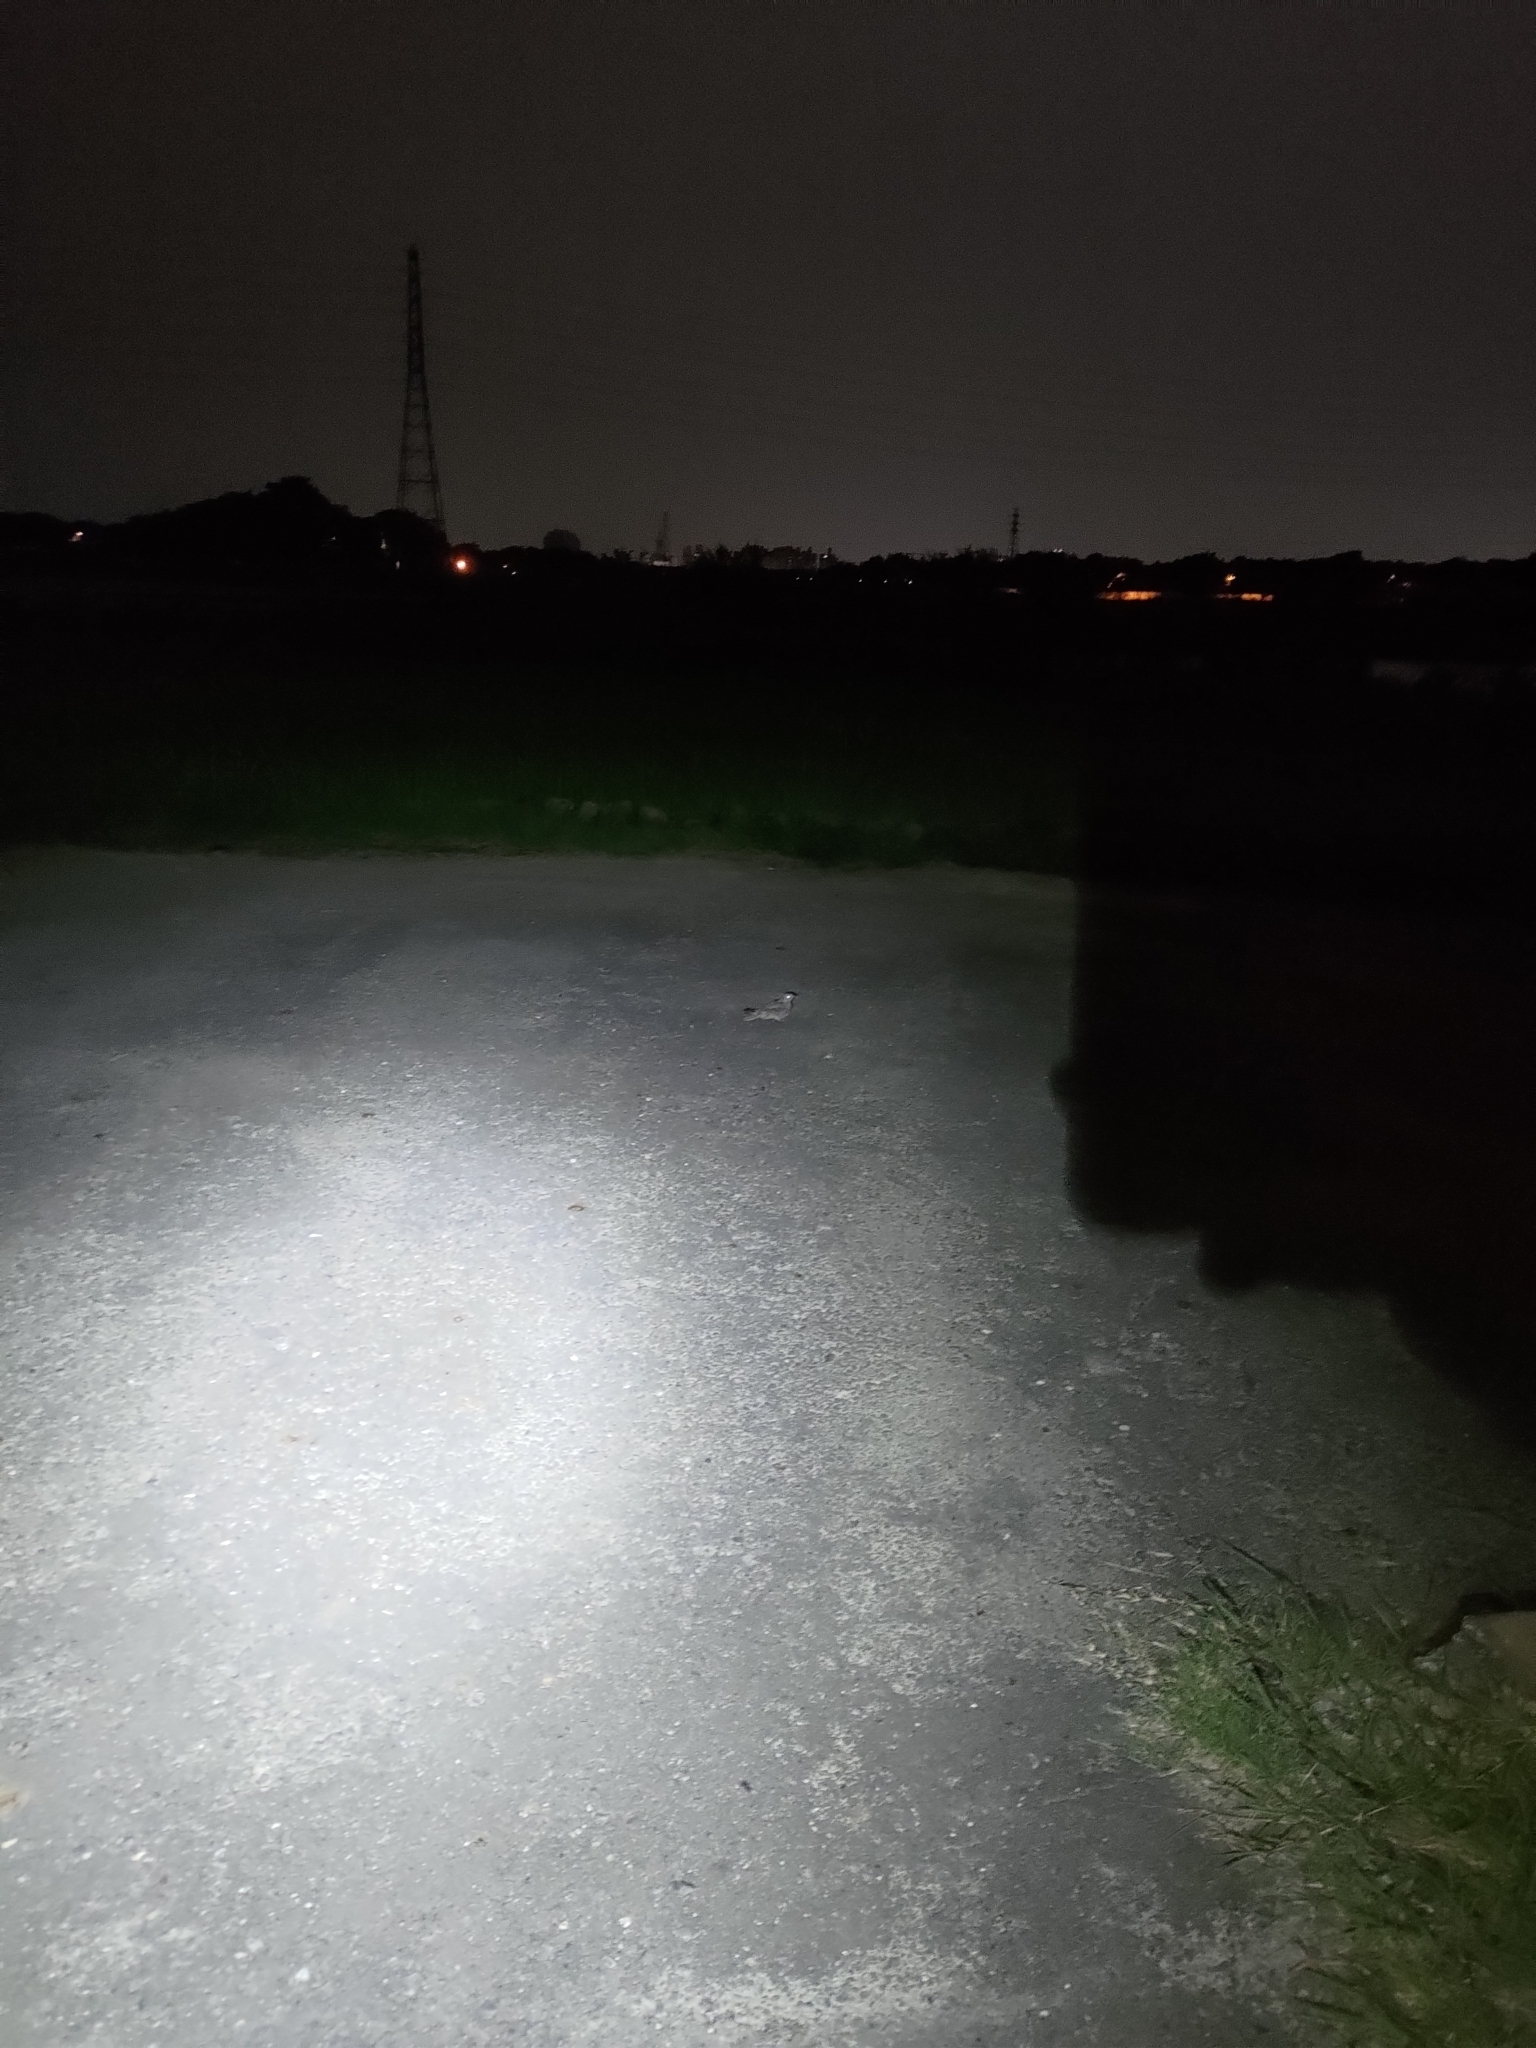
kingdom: Animalia
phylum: Chordata
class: Aves
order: Caprimulgiformes
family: Caprimulgidae
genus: Caprimulgus
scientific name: Caprimulgus affinis
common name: Savanna nightjar
